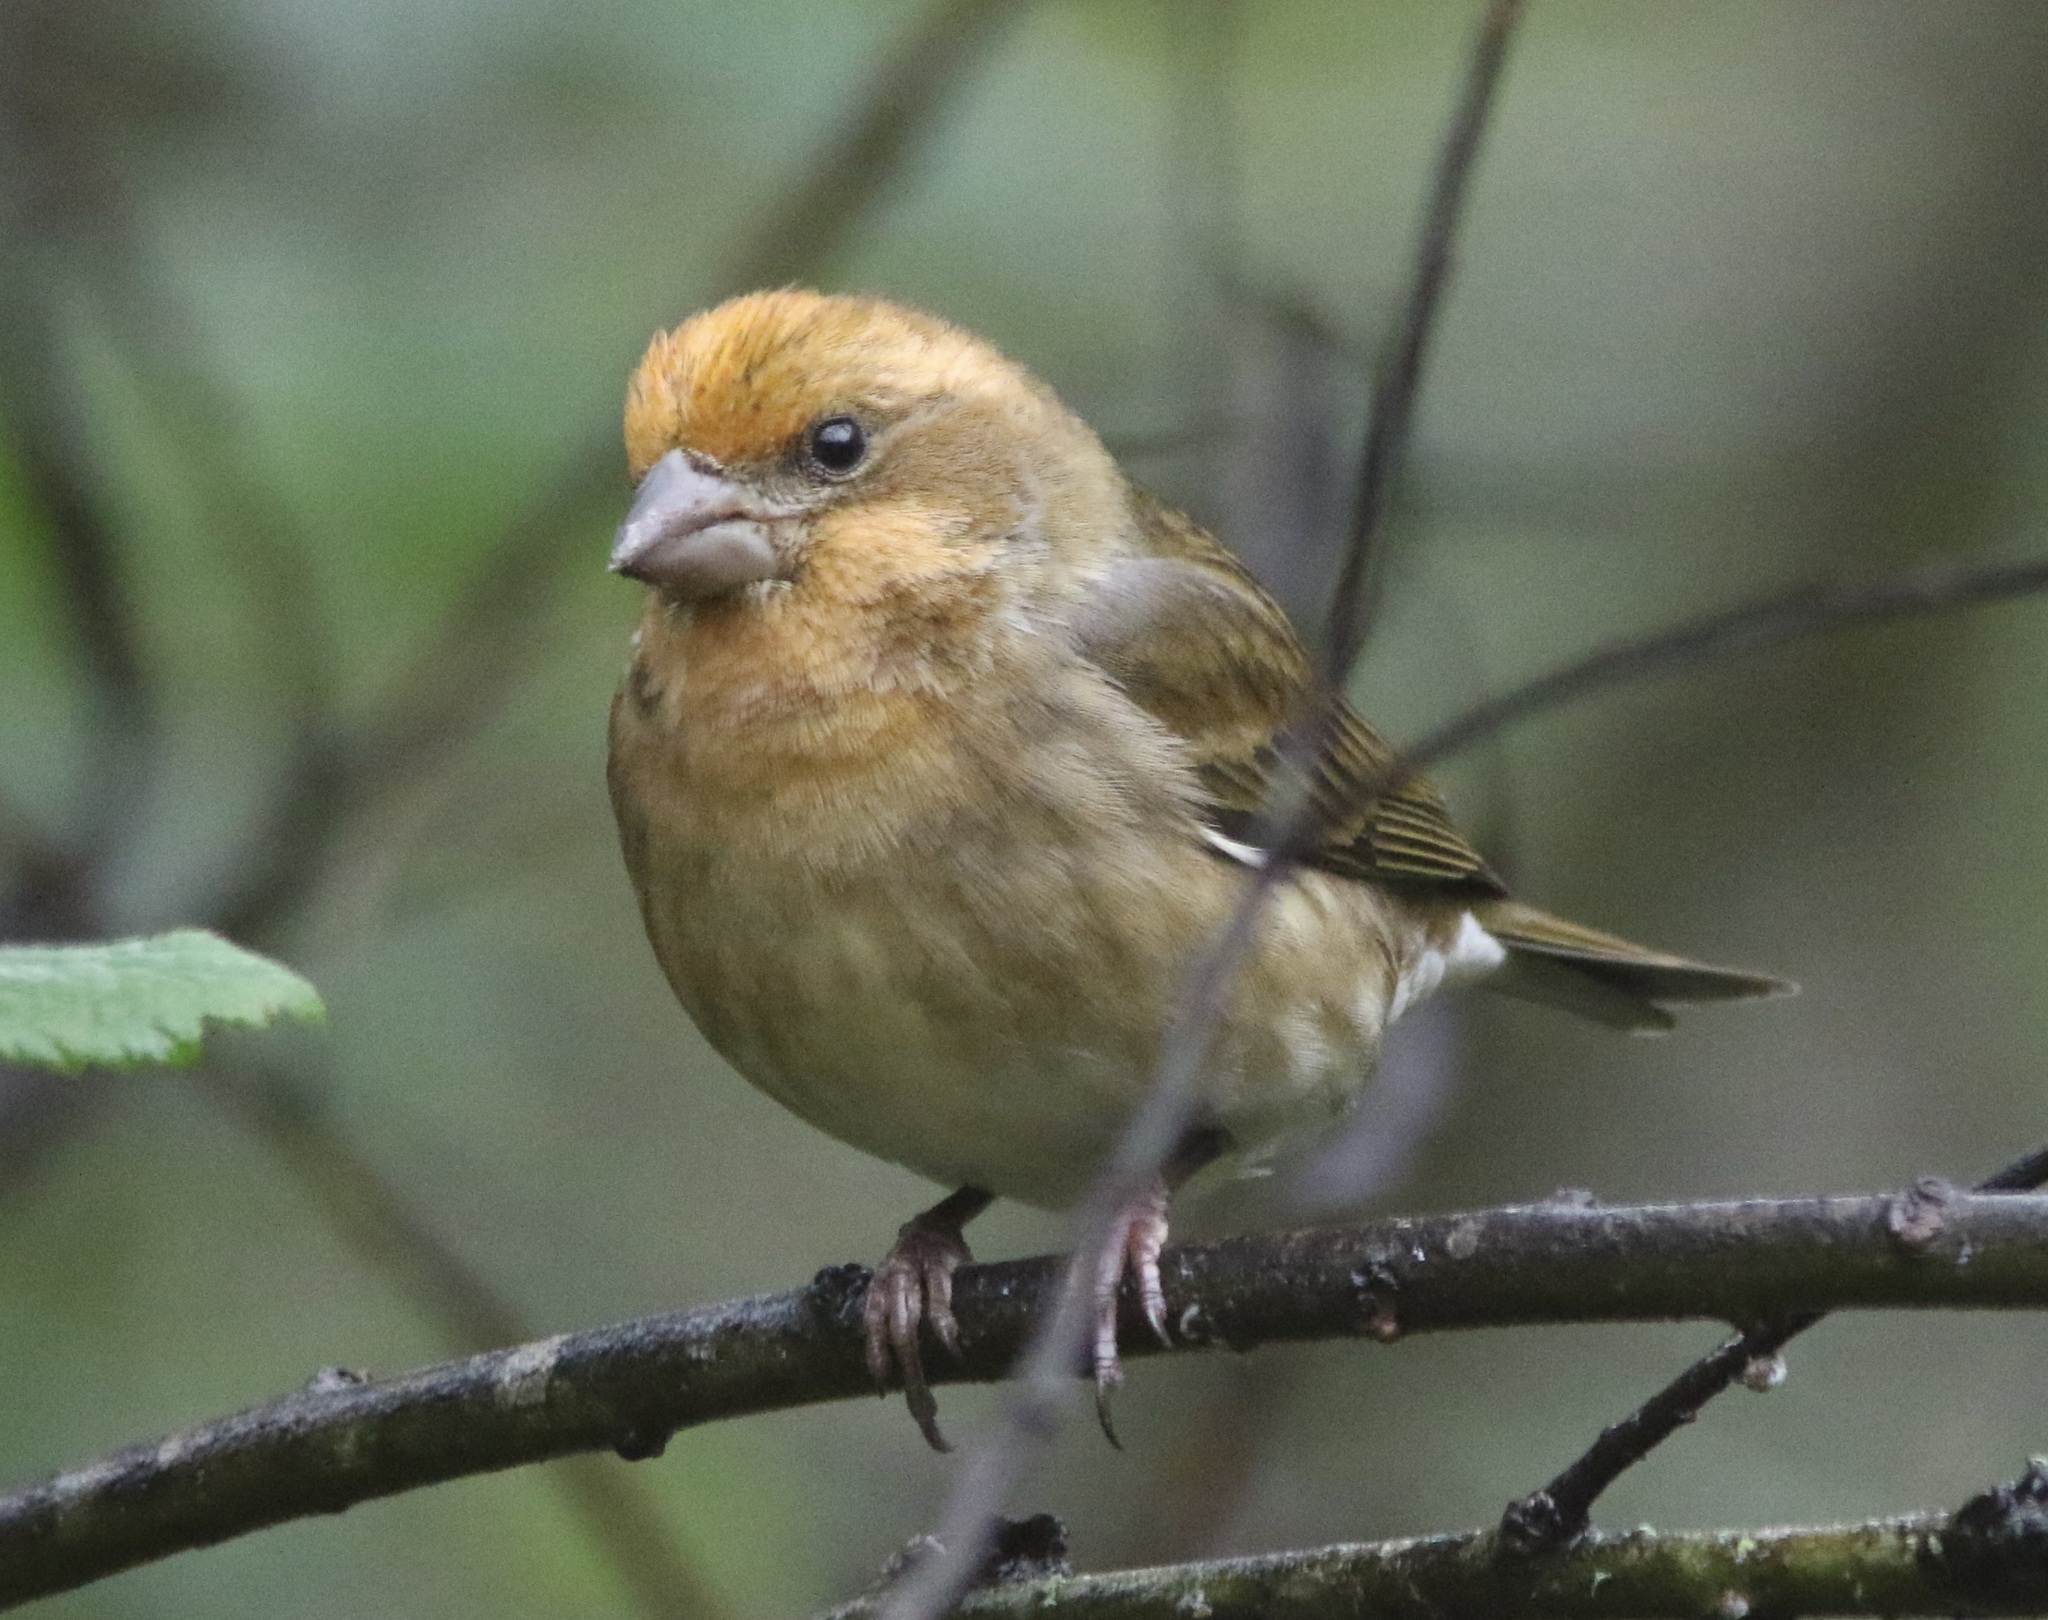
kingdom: Animalia
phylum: Chordata
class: Aves
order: Passeriformes
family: Fringillidae
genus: Haemorhous
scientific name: Haemorhous purpureus
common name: Purple finch
